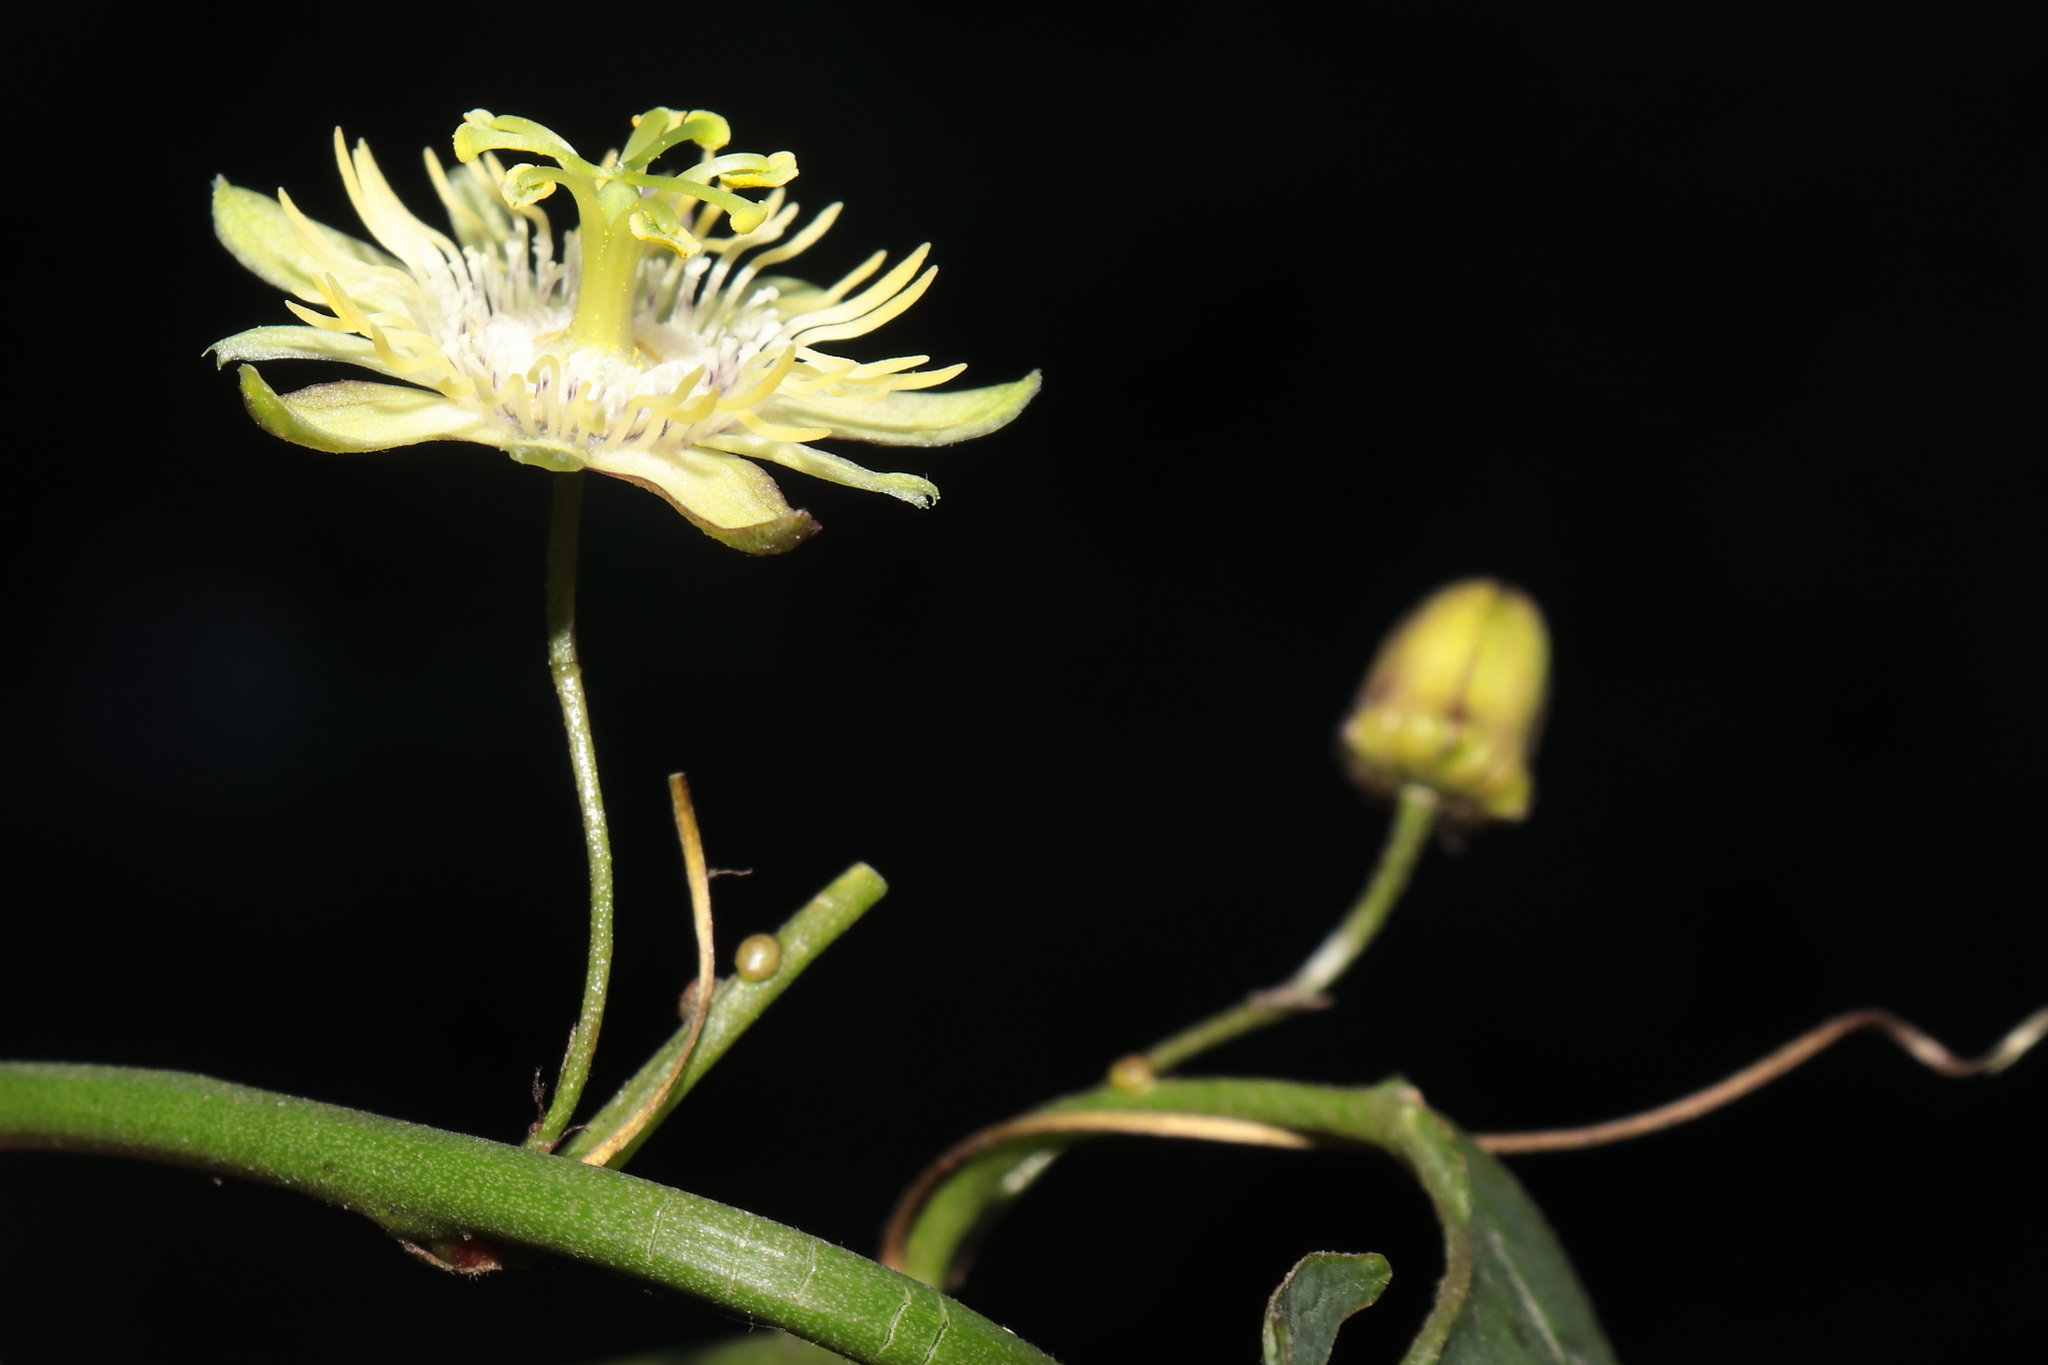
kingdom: Plantae
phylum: Tracheophyta
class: Magnoliopsida
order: Malpighiales
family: Passifloraceae
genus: Passiflora
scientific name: Passiflora lobbii
